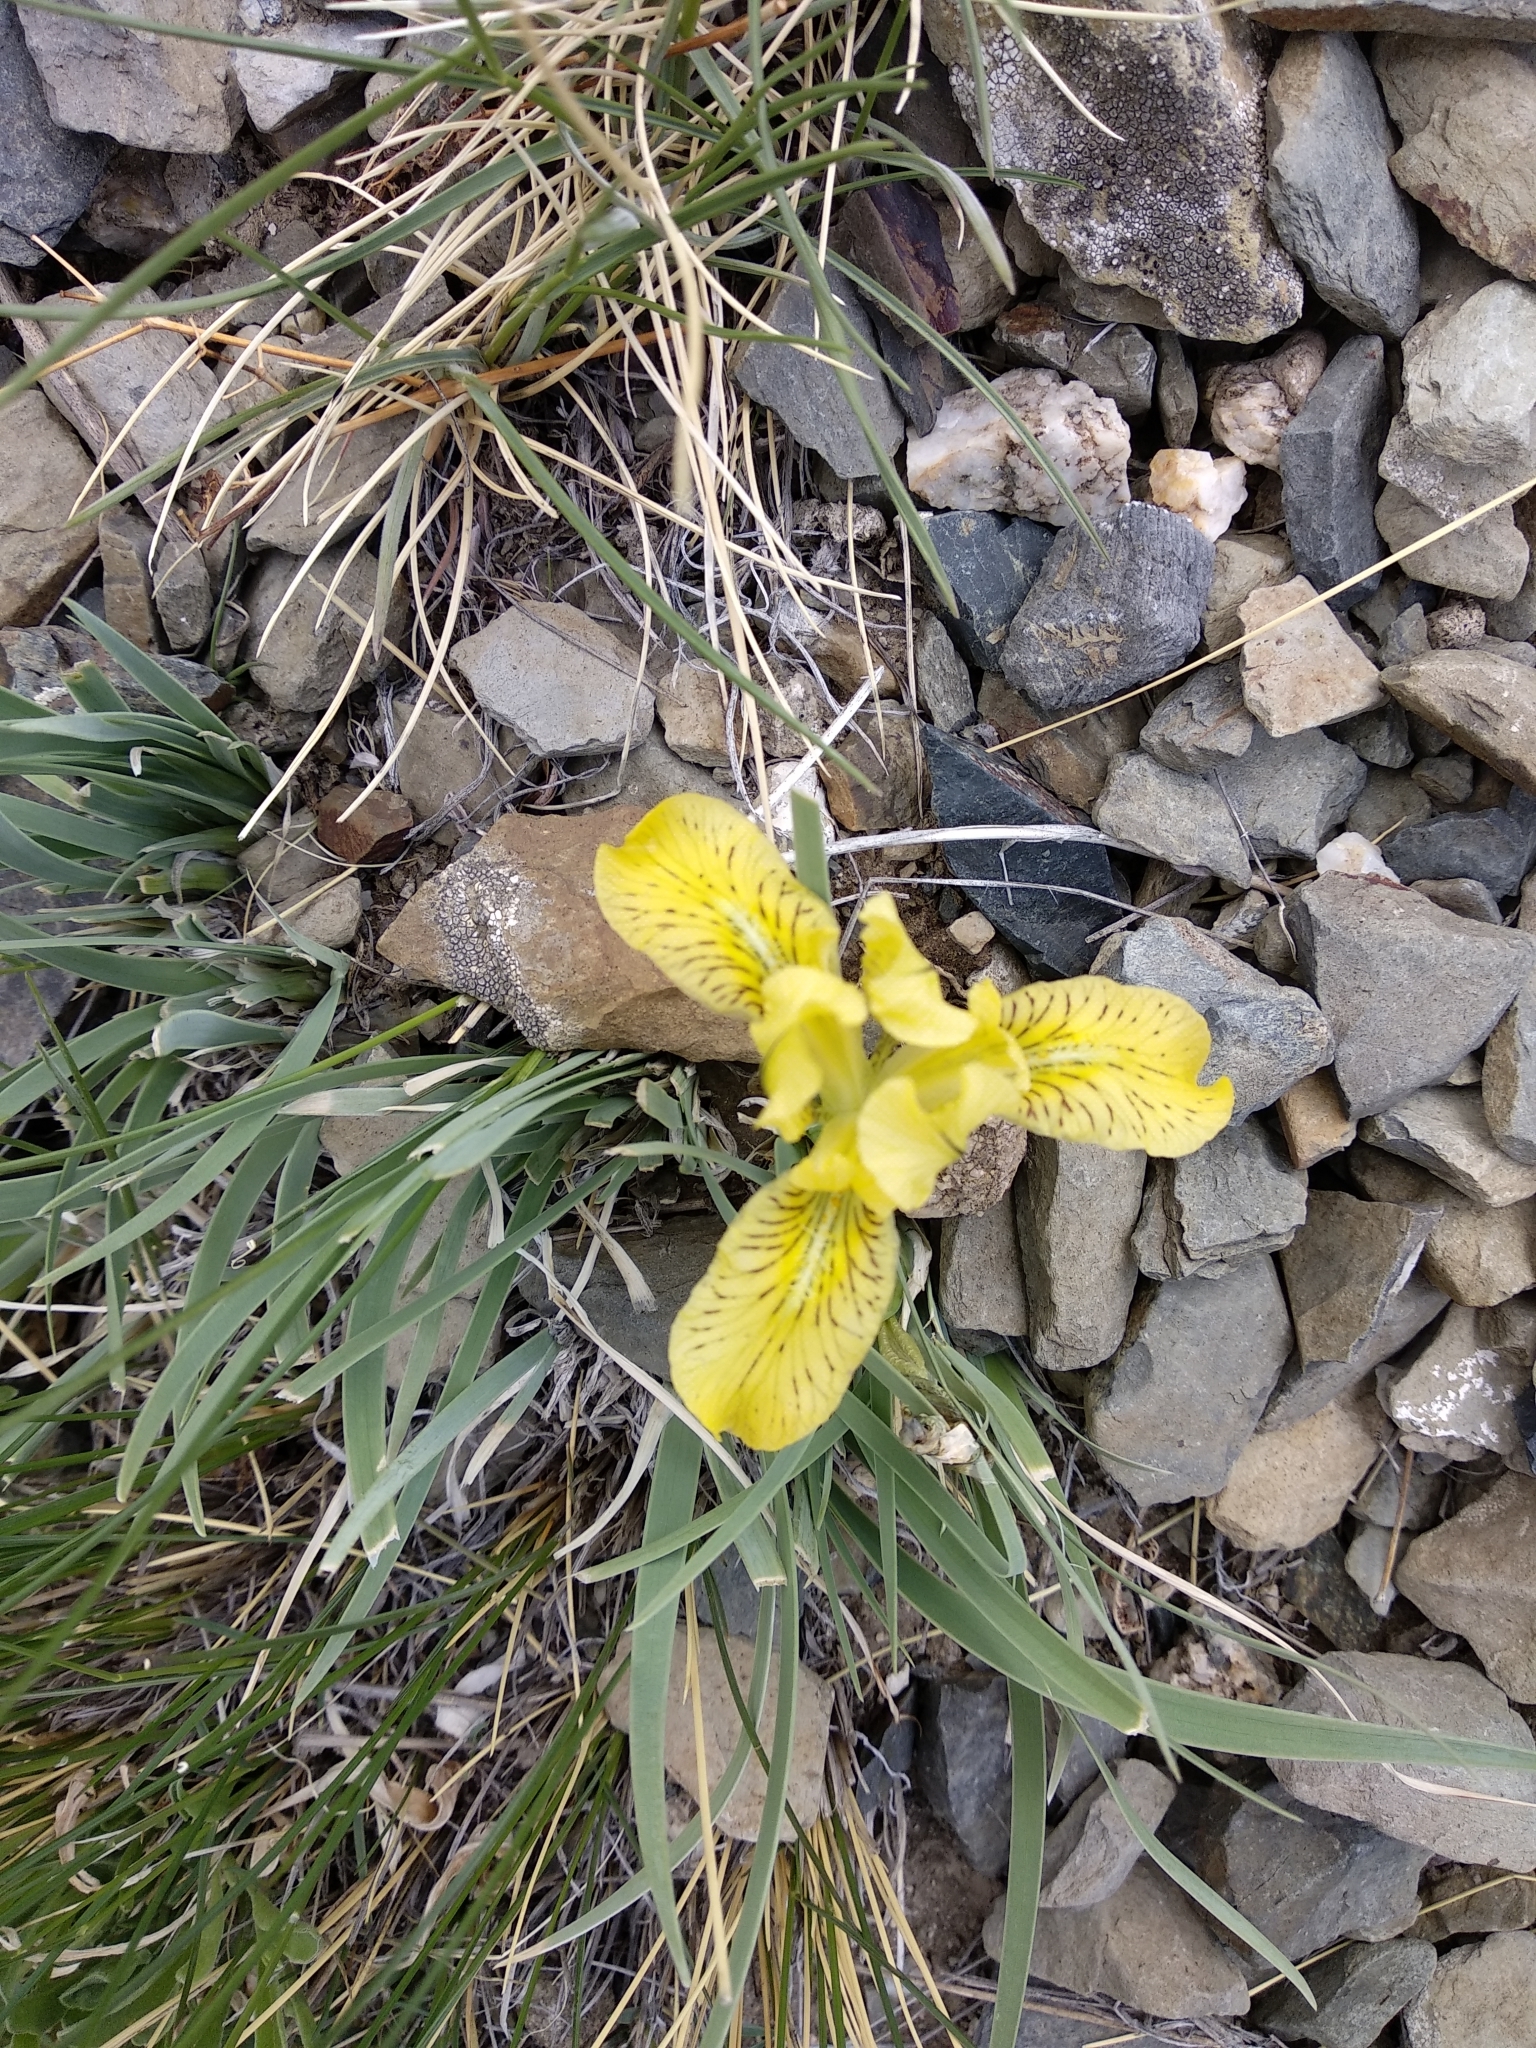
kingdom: Plantae
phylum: Tracheophyta
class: Liliopsida
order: Asparagales
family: Iridaceae
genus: Iris
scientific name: Iris potaninii
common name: Curl-sheath iris
